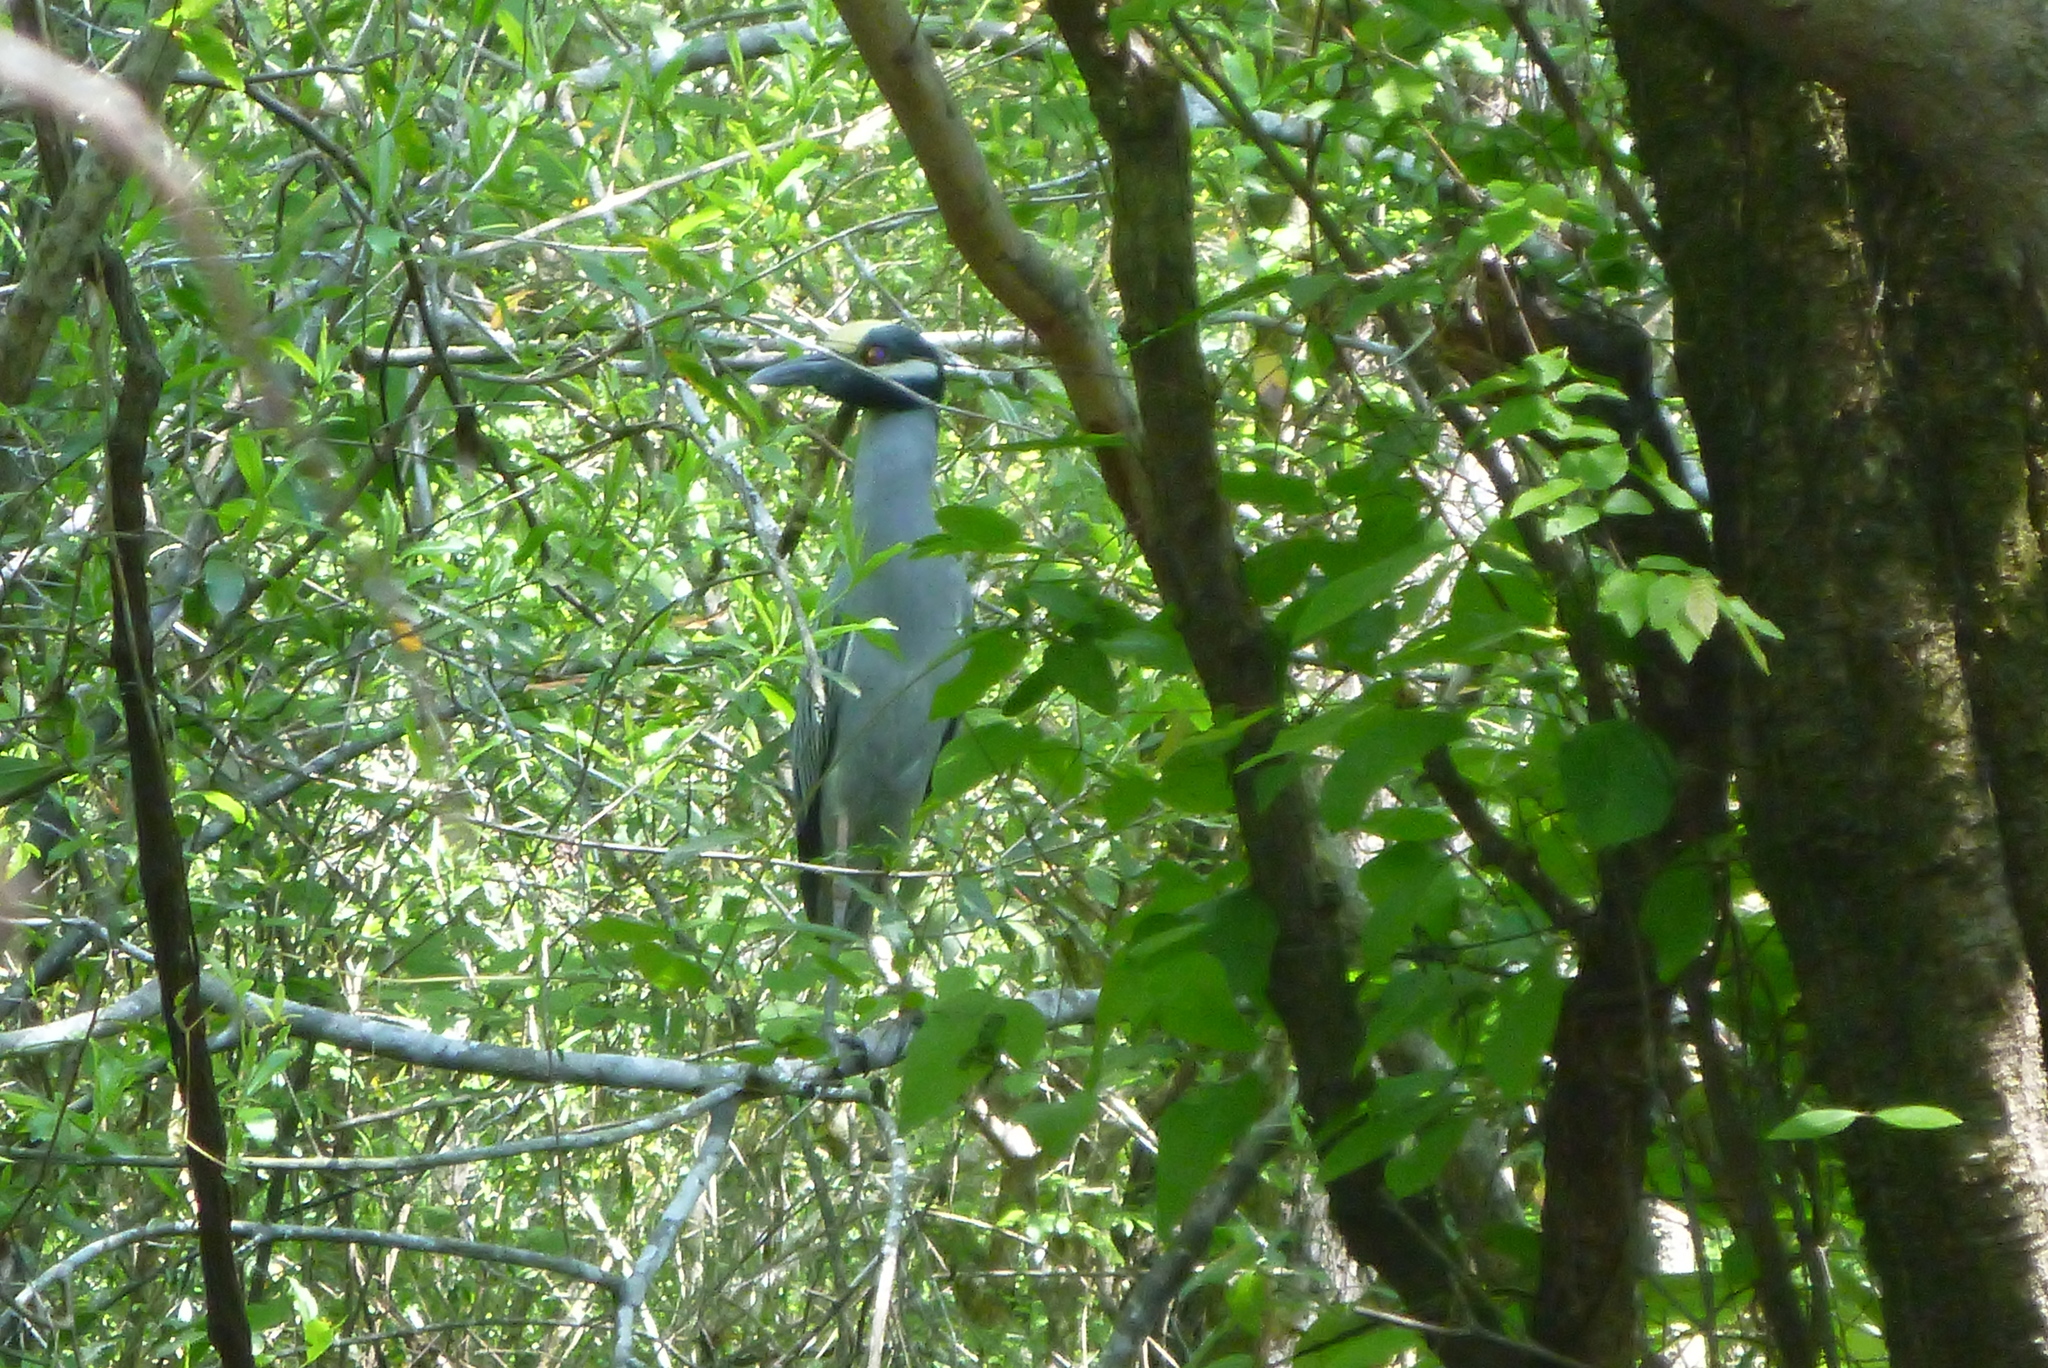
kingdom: Animalia
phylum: Chordata
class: Aves
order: Pelecaniformes
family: Ardeidae
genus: Nyctanassa
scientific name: Nyctanassa violacea
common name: Yellow-crowned night heron
